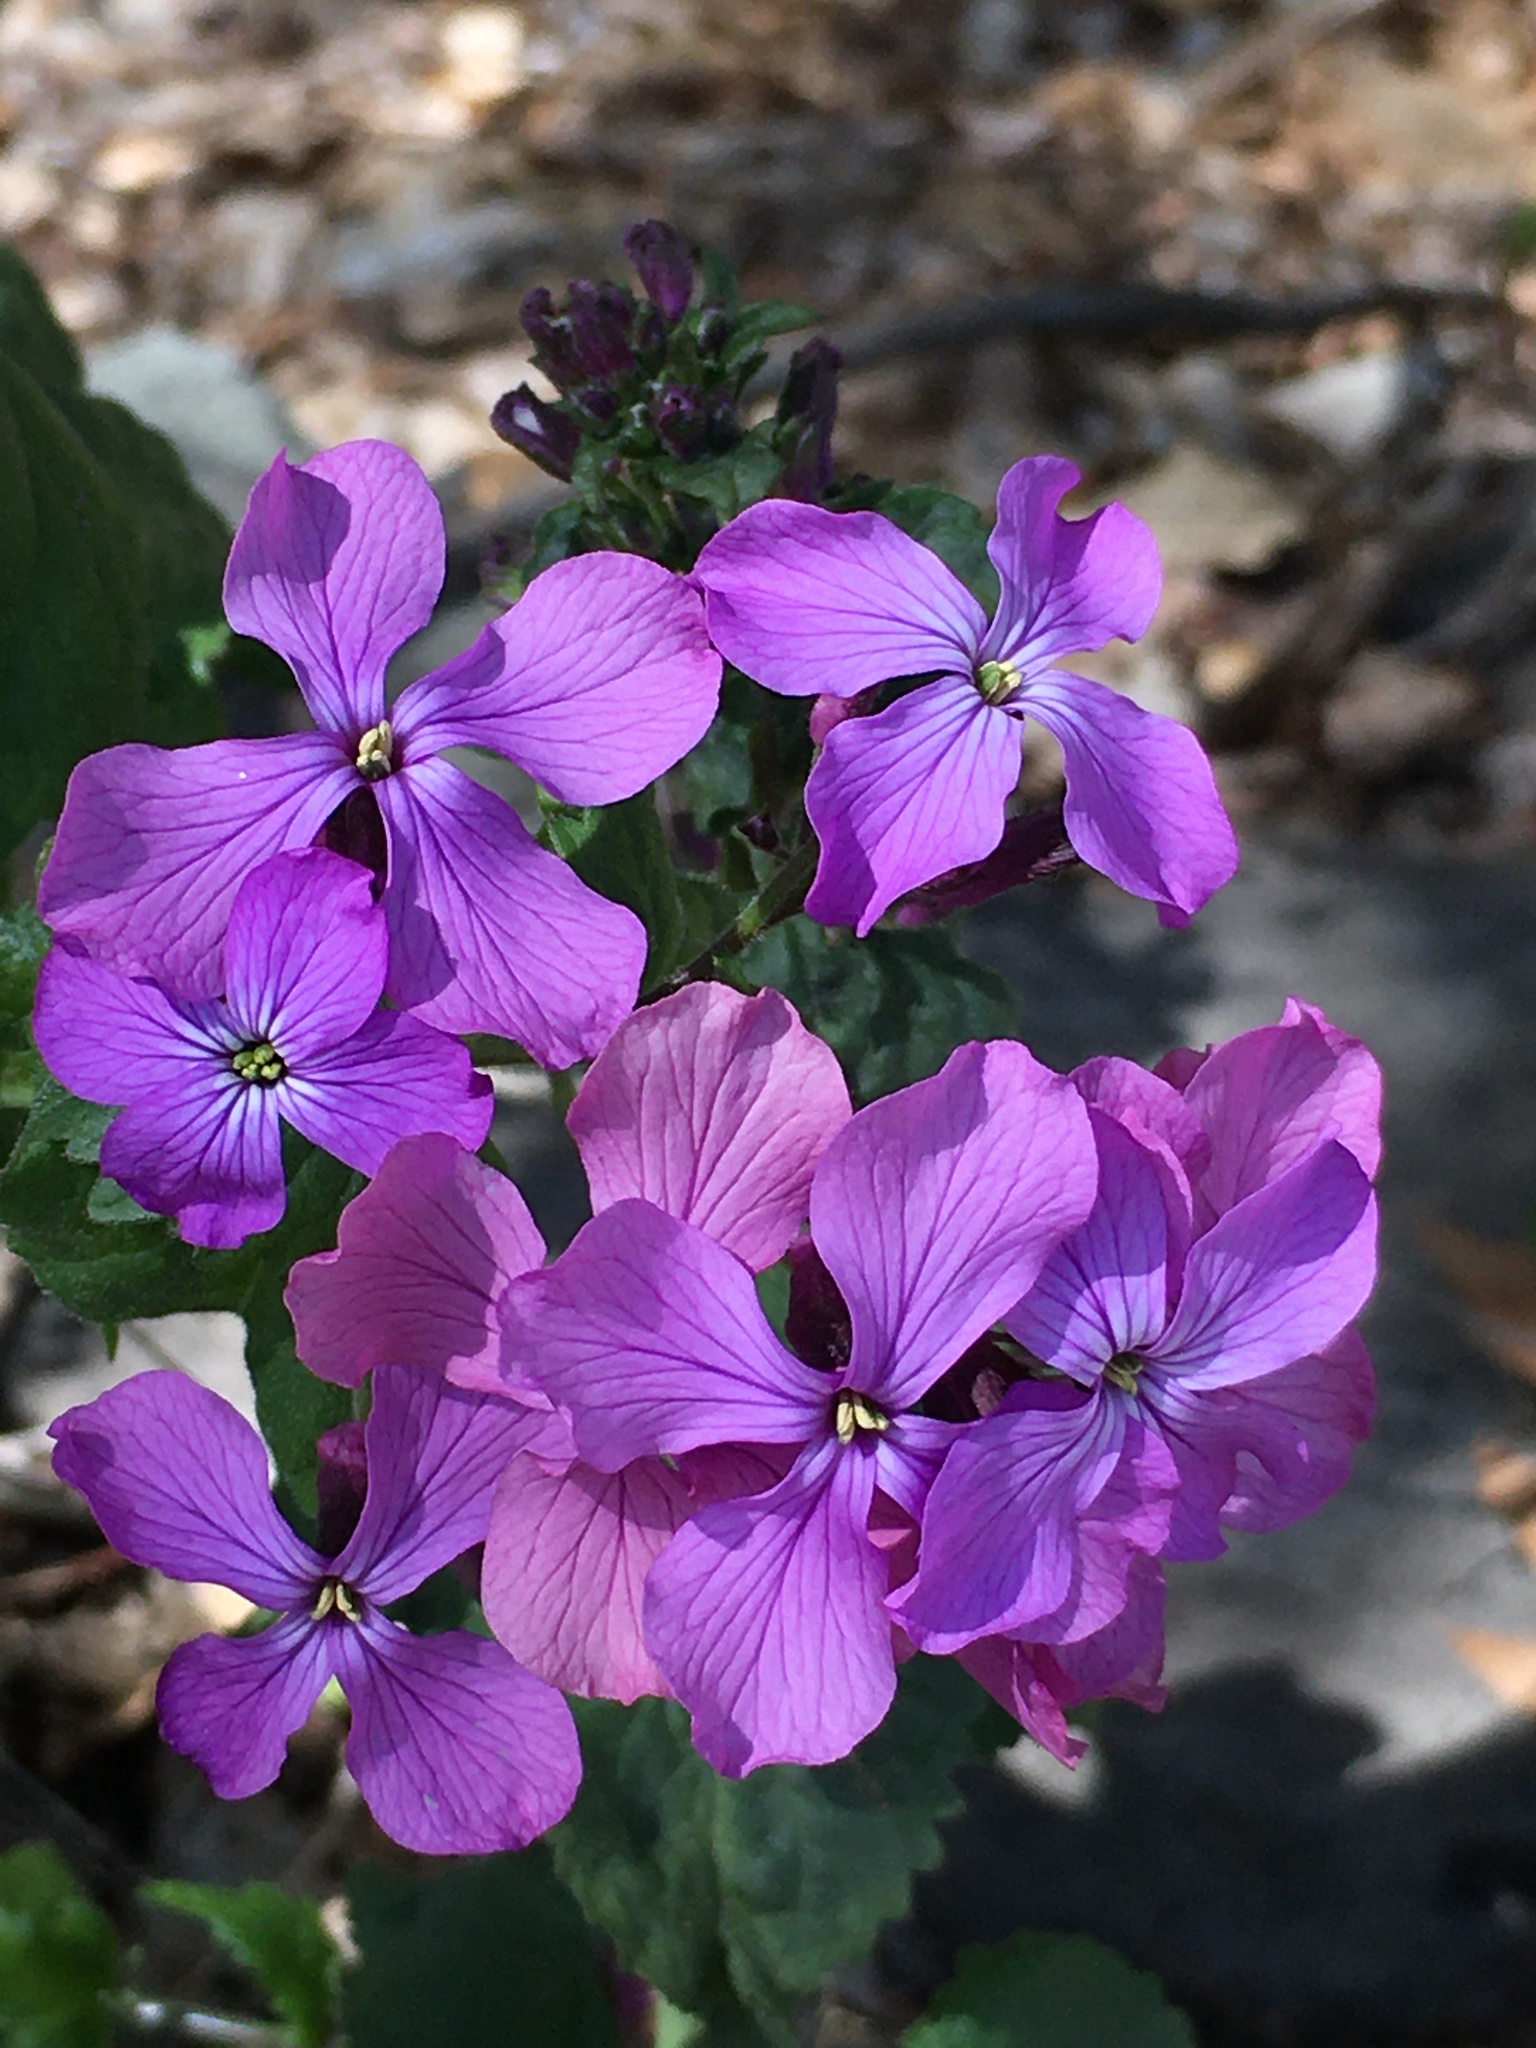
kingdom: Plantae
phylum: Tracheophyta
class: Magnoliopsida
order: Brassicales
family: Brassicaceae
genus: Lunaria
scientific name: Lunaria annua
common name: Honesty
